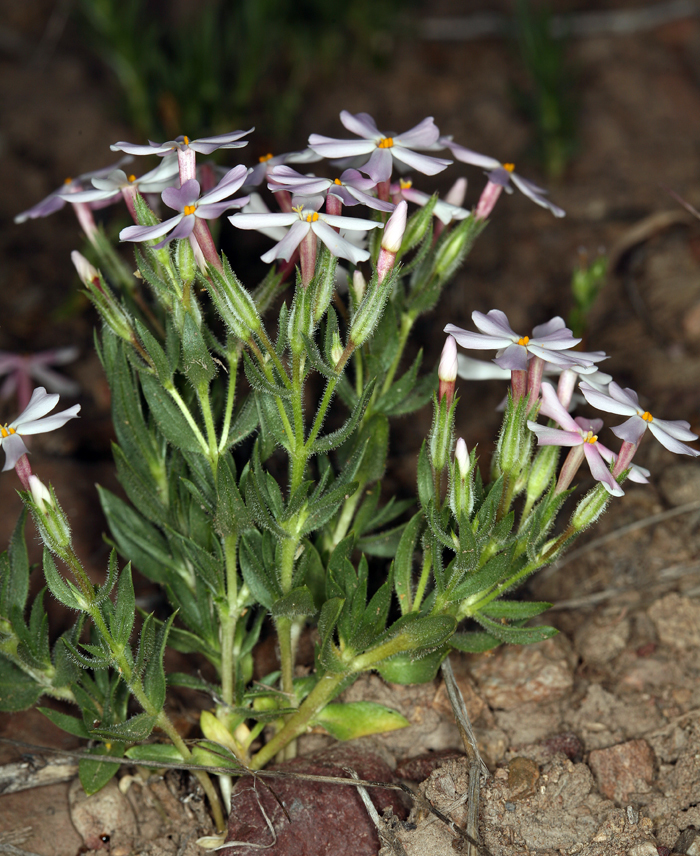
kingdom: Plantae
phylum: Tracheophyta
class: Magnoliopsida
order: Ericales
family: Polemoniaceae
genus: Phlox
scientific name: Phlox longifolia
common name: Longleaf phlox
